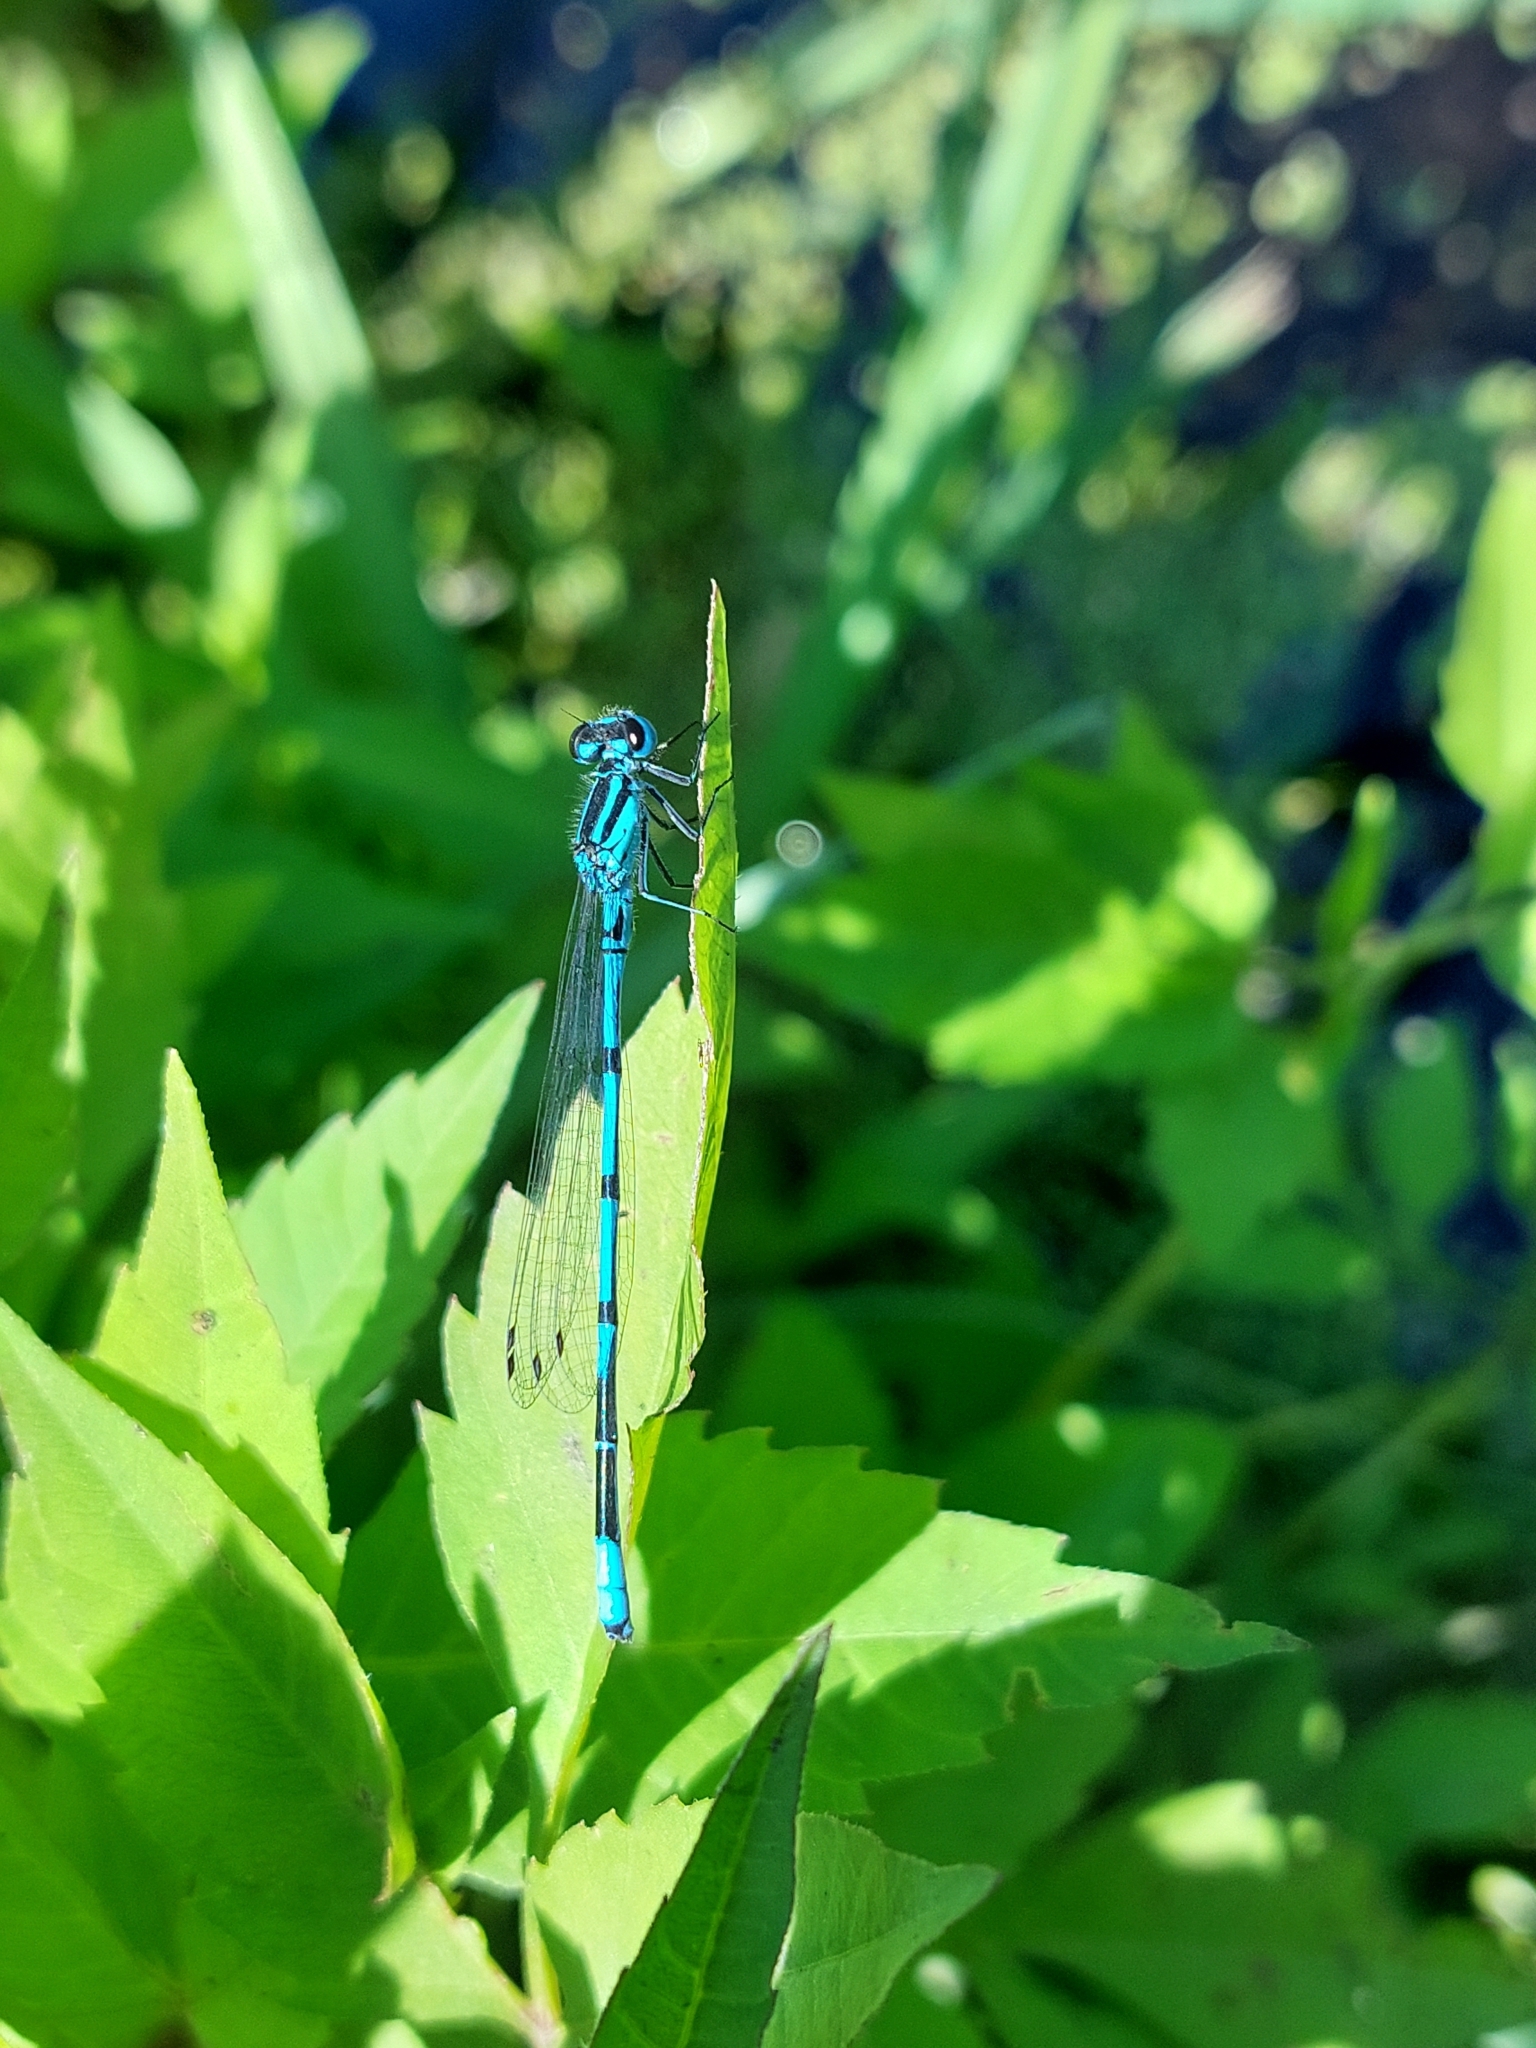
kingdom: Animalia
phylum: Arthropoda
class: Insecta
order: Odonata
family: Coenagrionidae
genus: Coenagrion
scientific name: Coenagrion puella
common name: Azure damselfly
